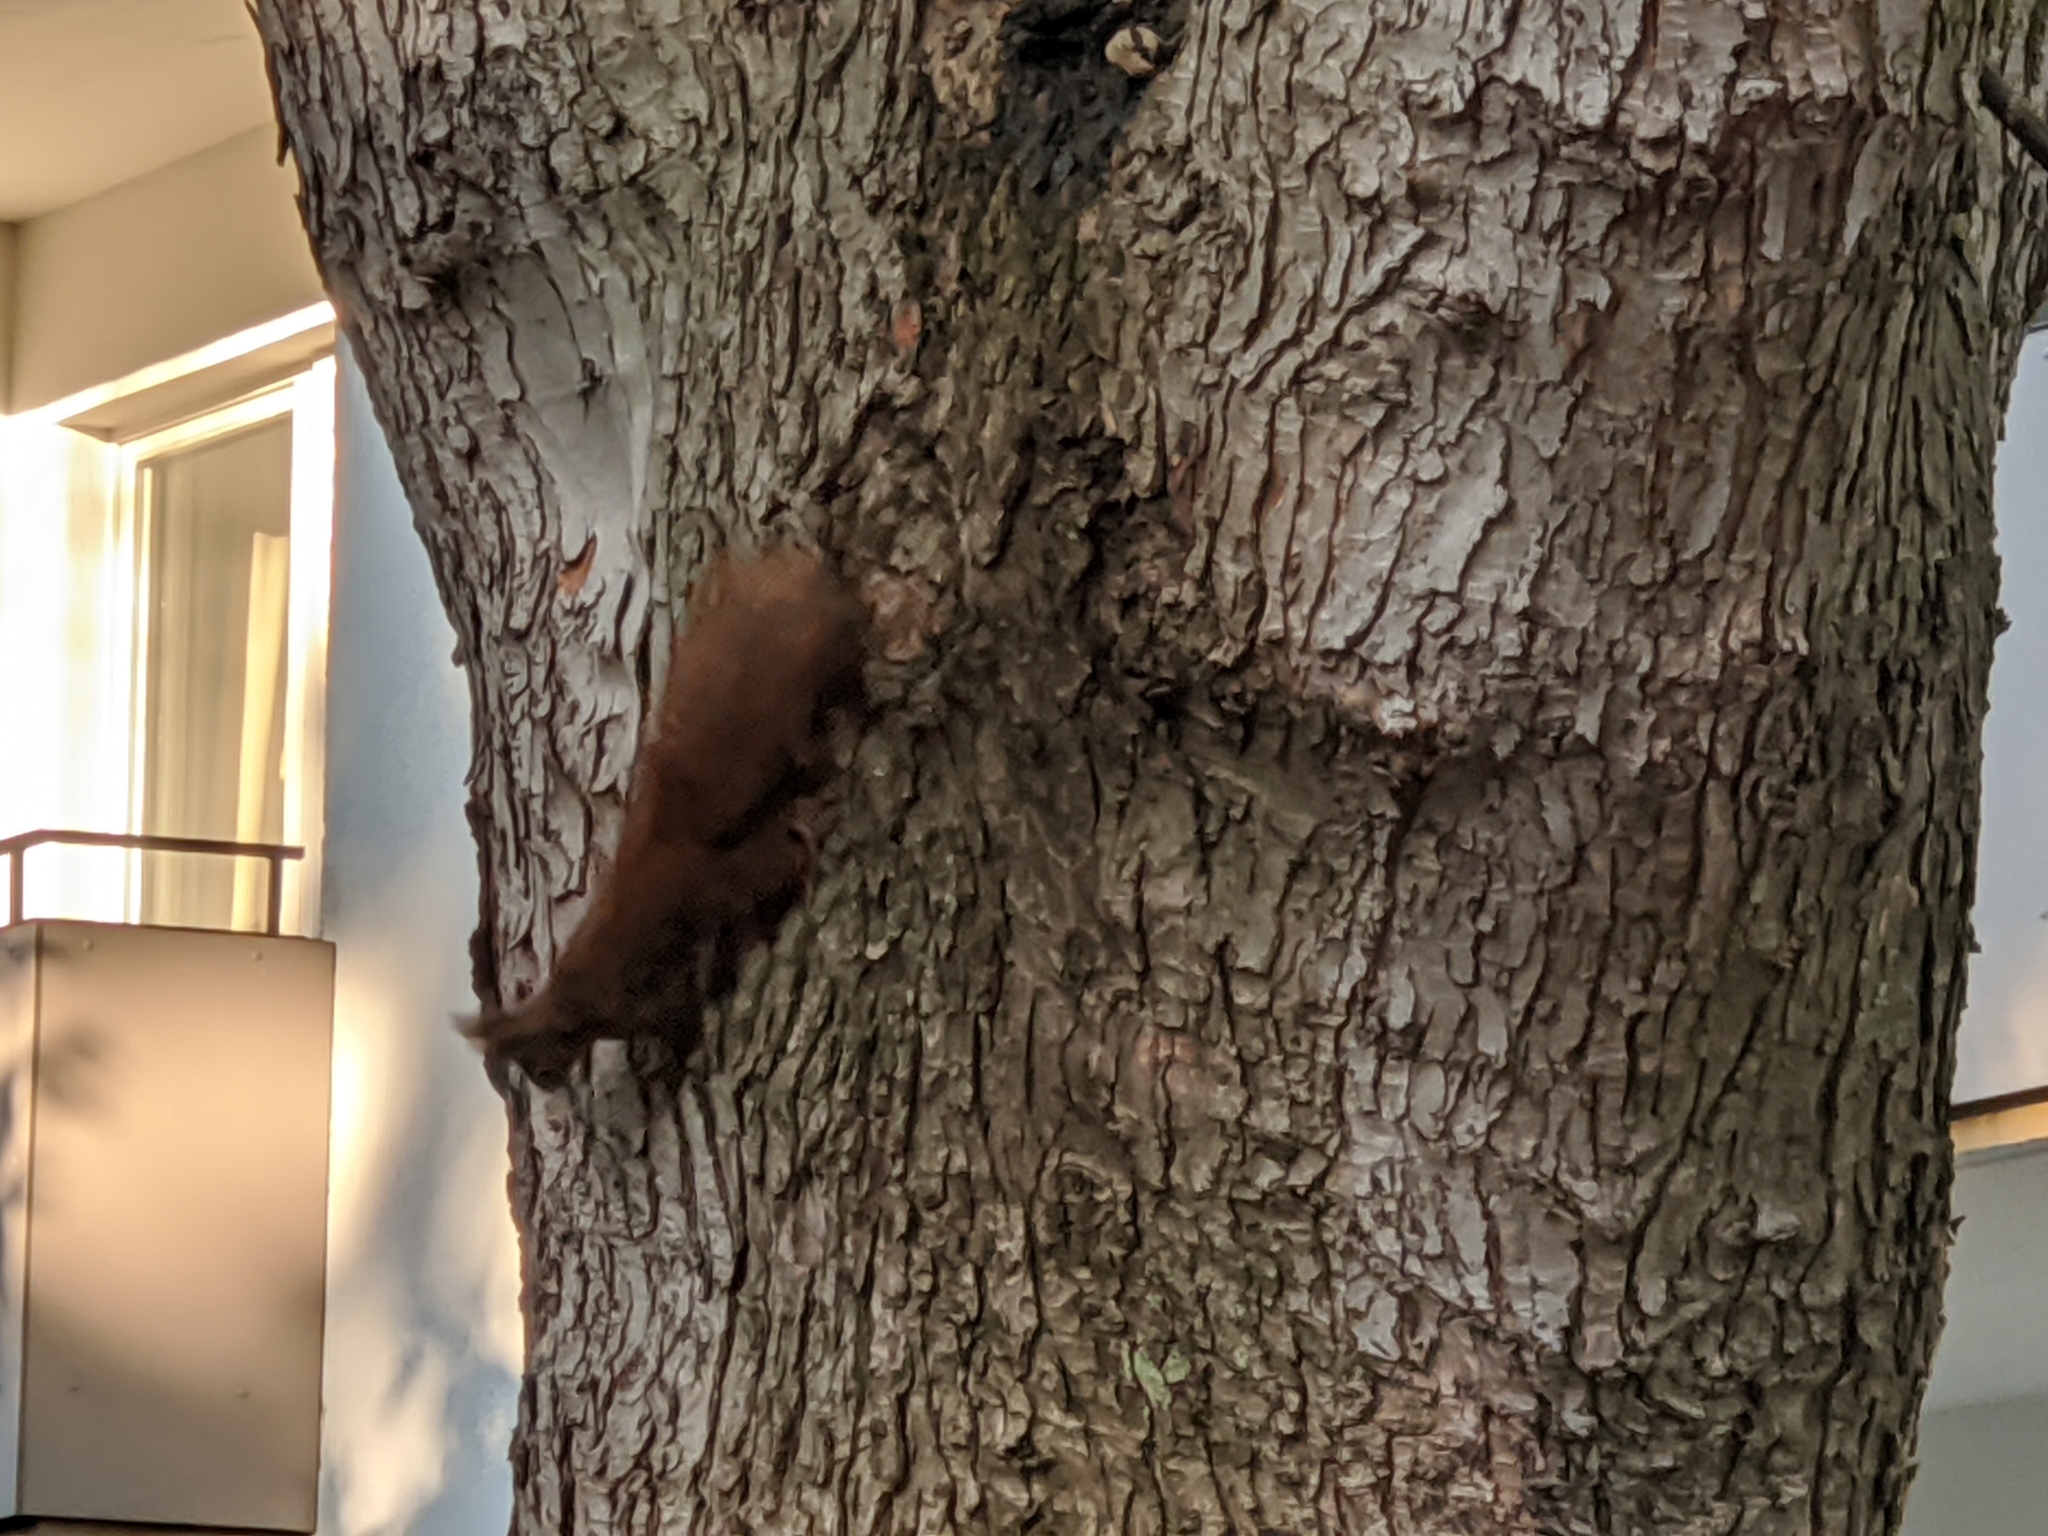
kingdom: Animalia
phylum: Chordata
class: Mammalia
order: Rodentia
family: Sciuridae
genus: Sciurus
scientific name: Sciurus vulgaris
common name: Eurasian red squirrel
